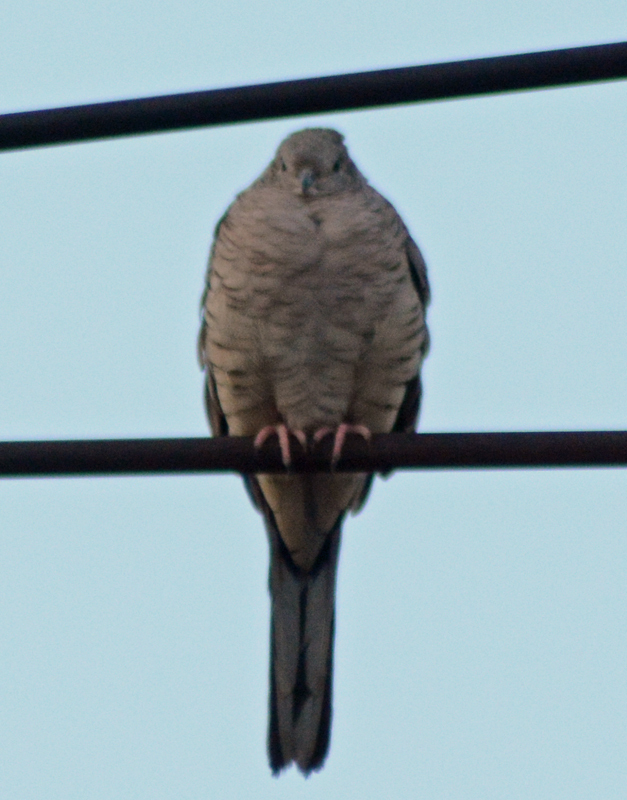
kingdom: Animalia
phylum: Chordata
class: Aves
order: Columbiformes
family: Columbidae
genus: Columbina
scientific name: Columbina inca
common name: Inca dove
